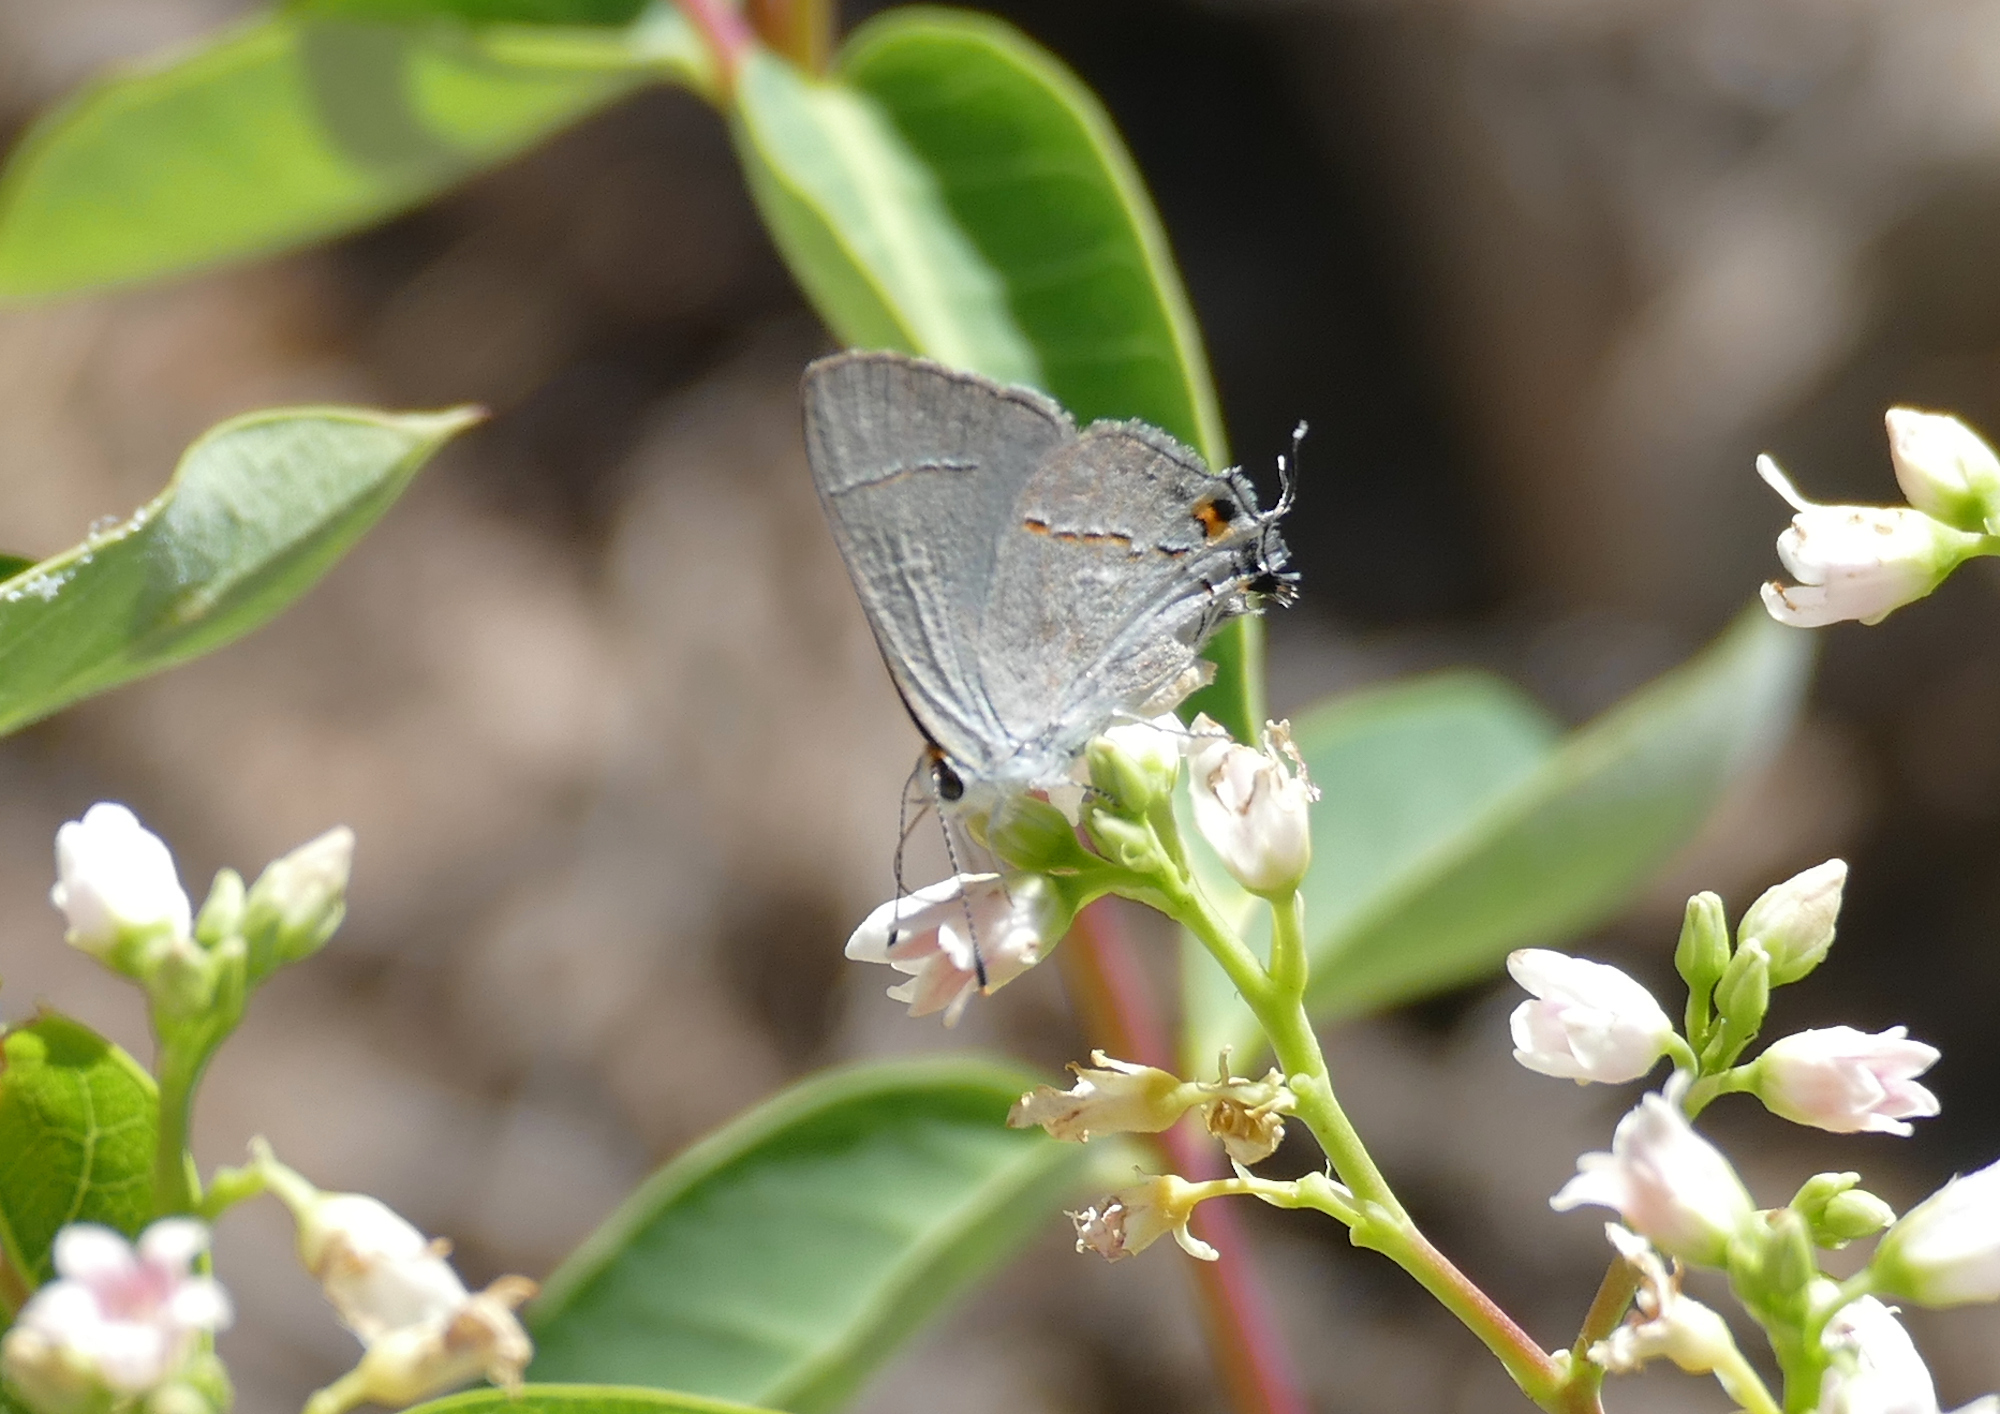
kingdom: Animalia
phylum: Arthropoda
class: Insecta
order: Lepidoptera
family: Lycaenidae
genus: Strymon
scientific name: Strymon melinus
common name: Gray hairstreak
